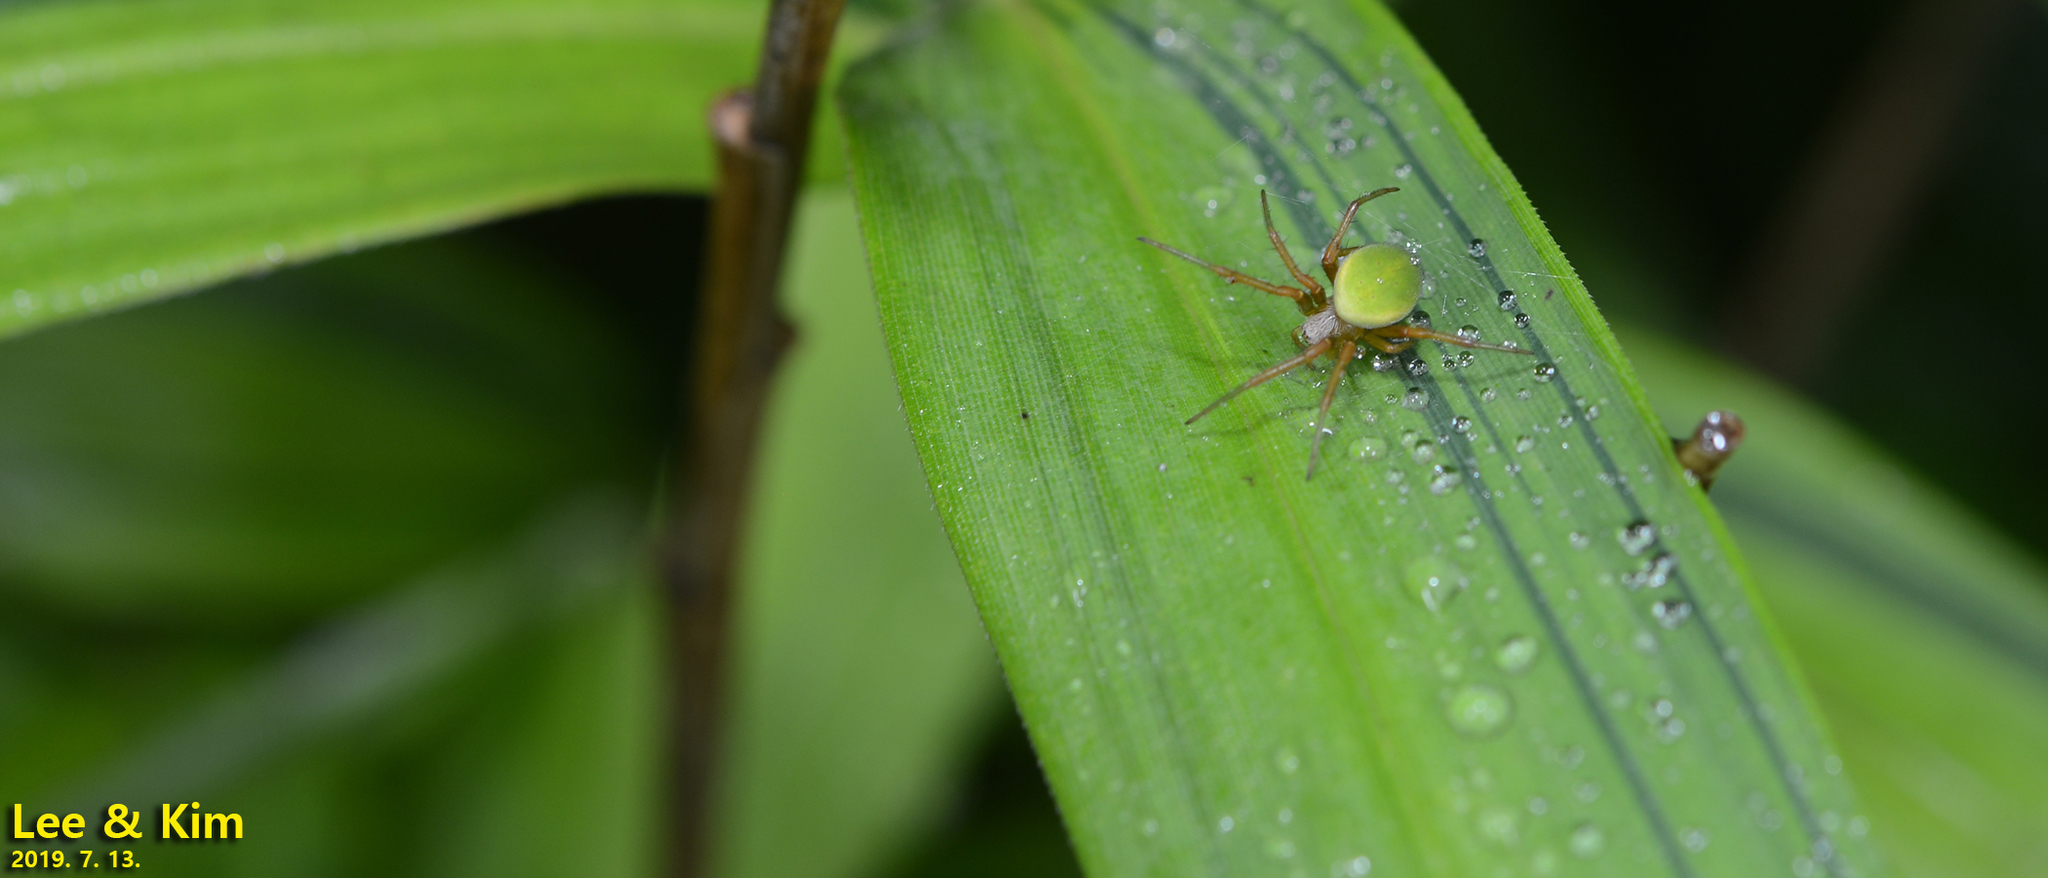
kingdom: Animalia
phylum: Arthropoda
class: Arachnida
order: Araneae
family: Araneidae
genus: Neoscona
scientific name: Neoscona scylloides
